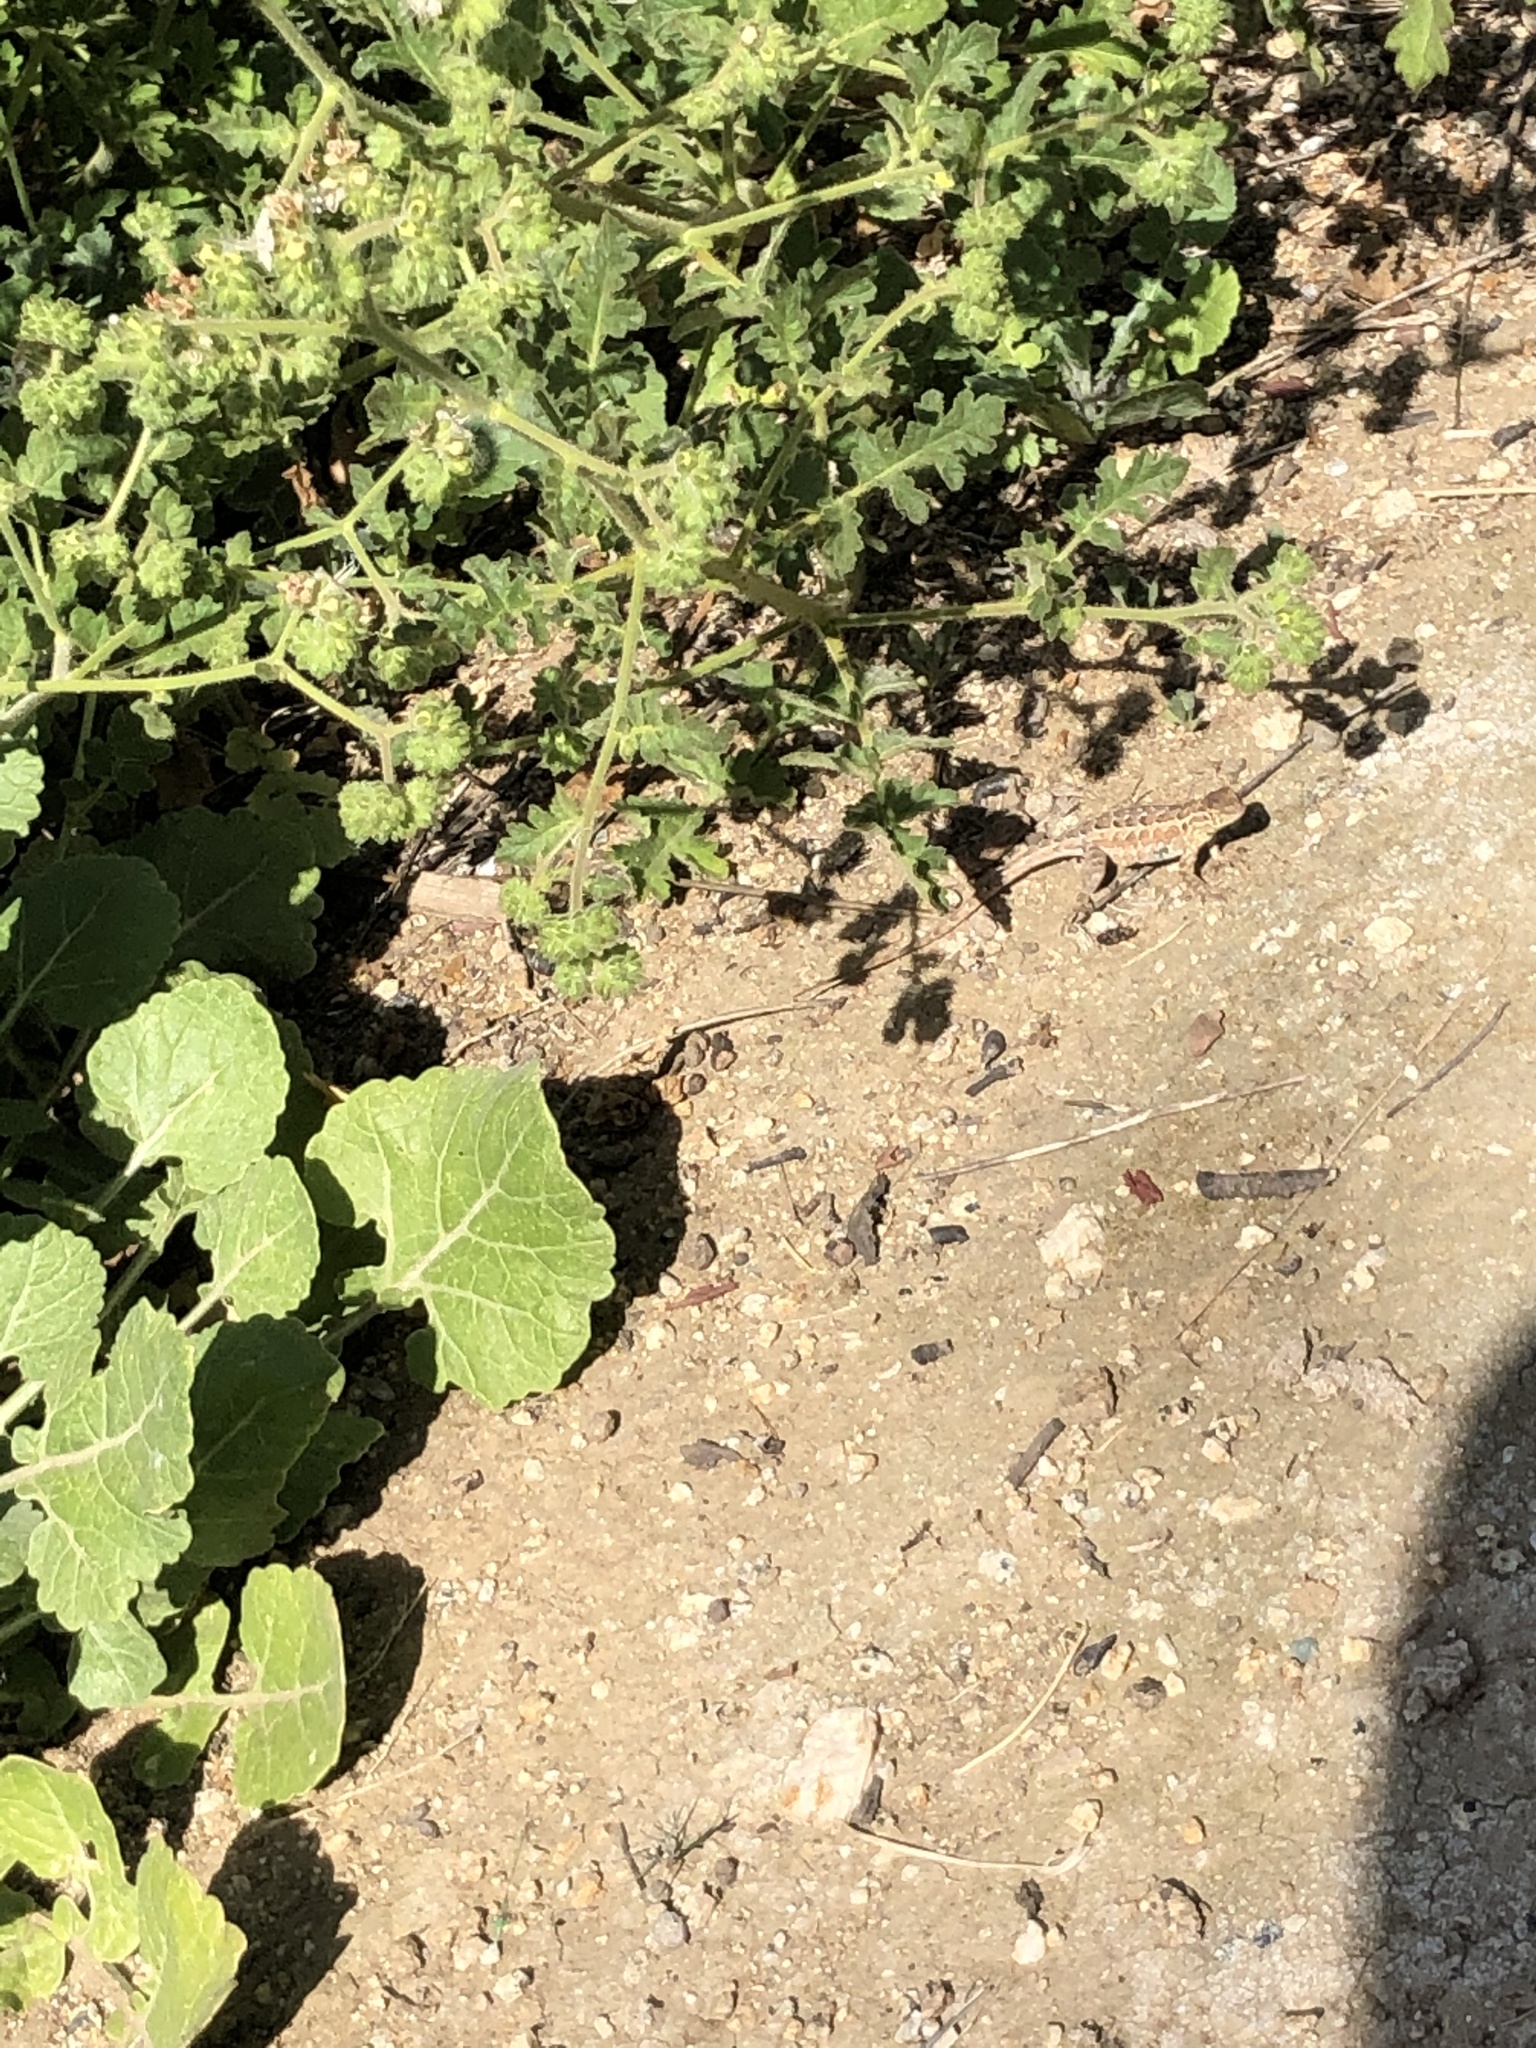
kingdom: Animalia
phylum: Chordata
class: Squamata
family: Phrynosomatidae
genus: Uta
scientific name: Uta stansburiana
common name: Side-blotched lizard
